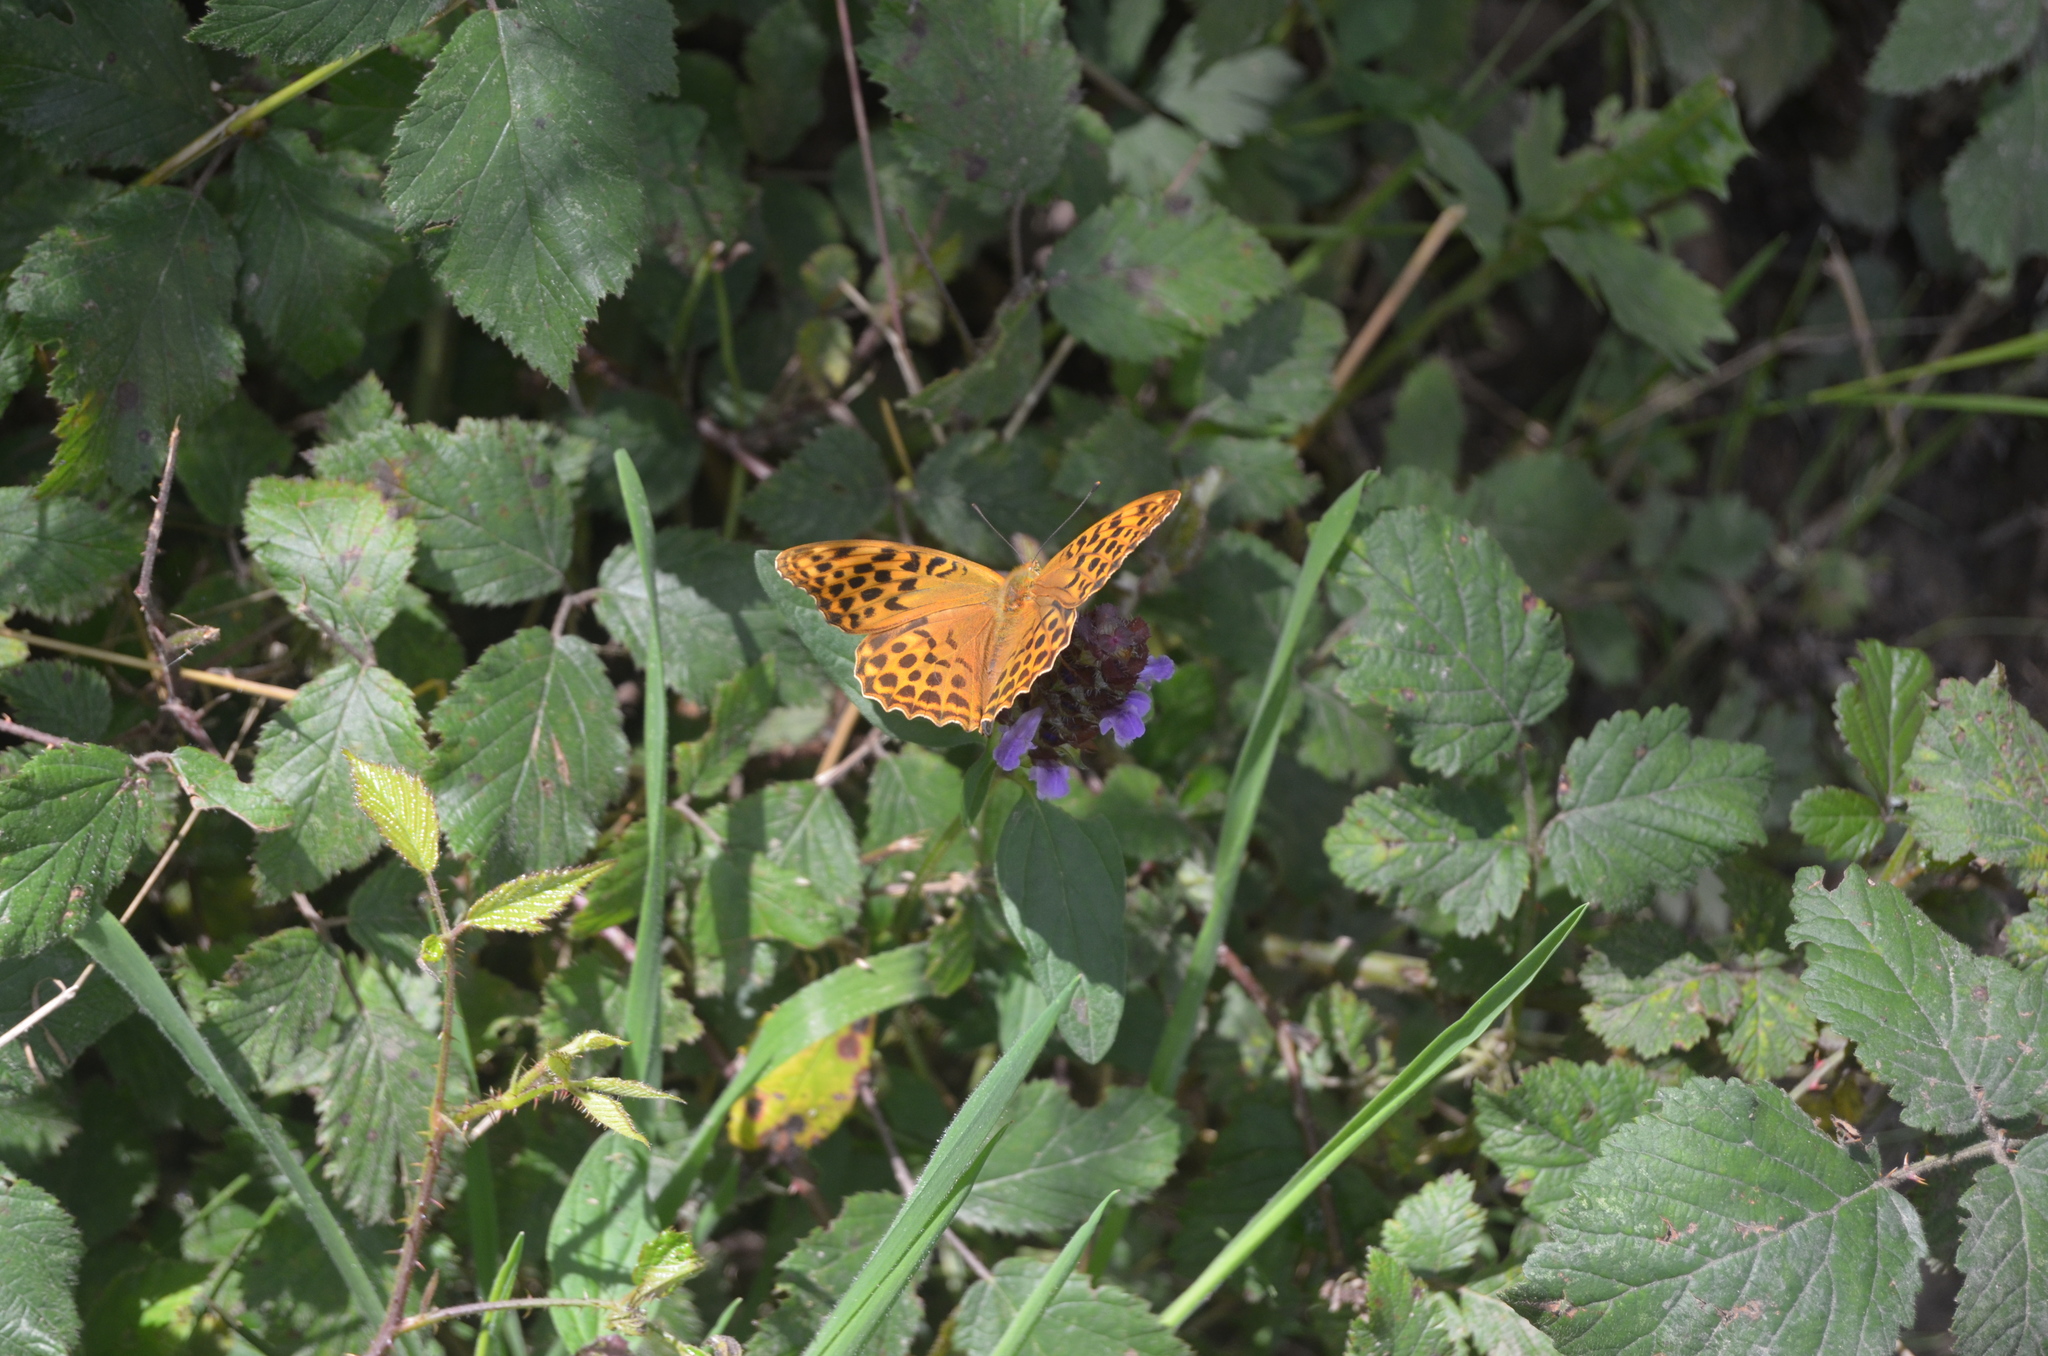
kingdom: Animalia
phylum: Arthropoda
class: Insecta
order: Lepidoptera
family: Nymphalidae
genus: Argynnis
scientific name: Argynnis paphia
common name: Silver-washed fritillary
